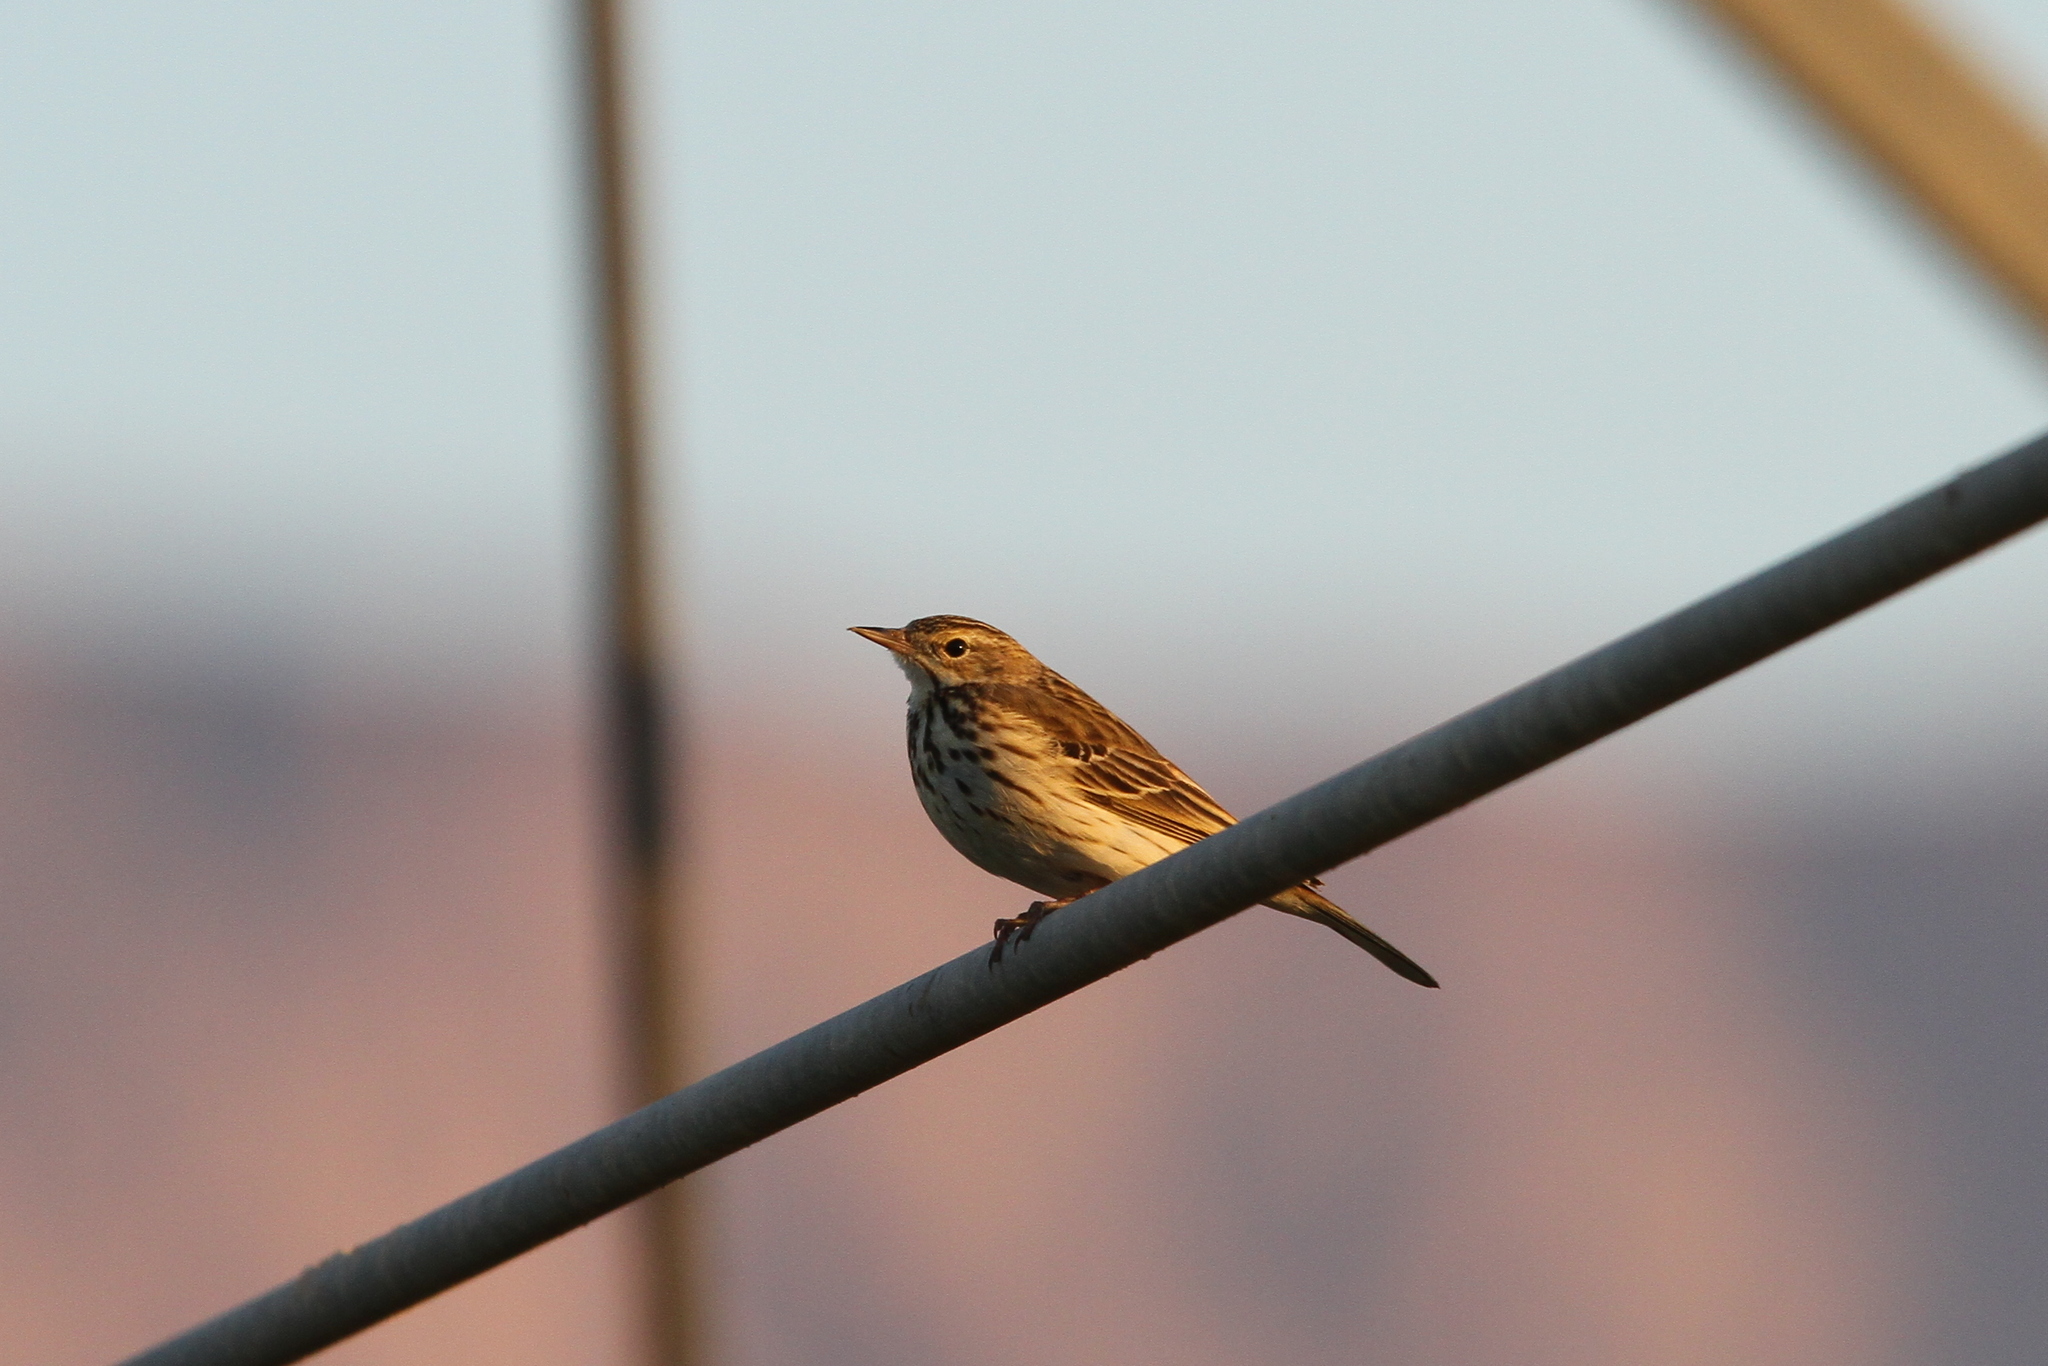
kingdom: Animalia
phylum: Chordata
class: Aves
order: Passeriformes
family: Motacillidae
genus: Anthus
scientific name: Anthus trivialis
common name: Tree pipit
